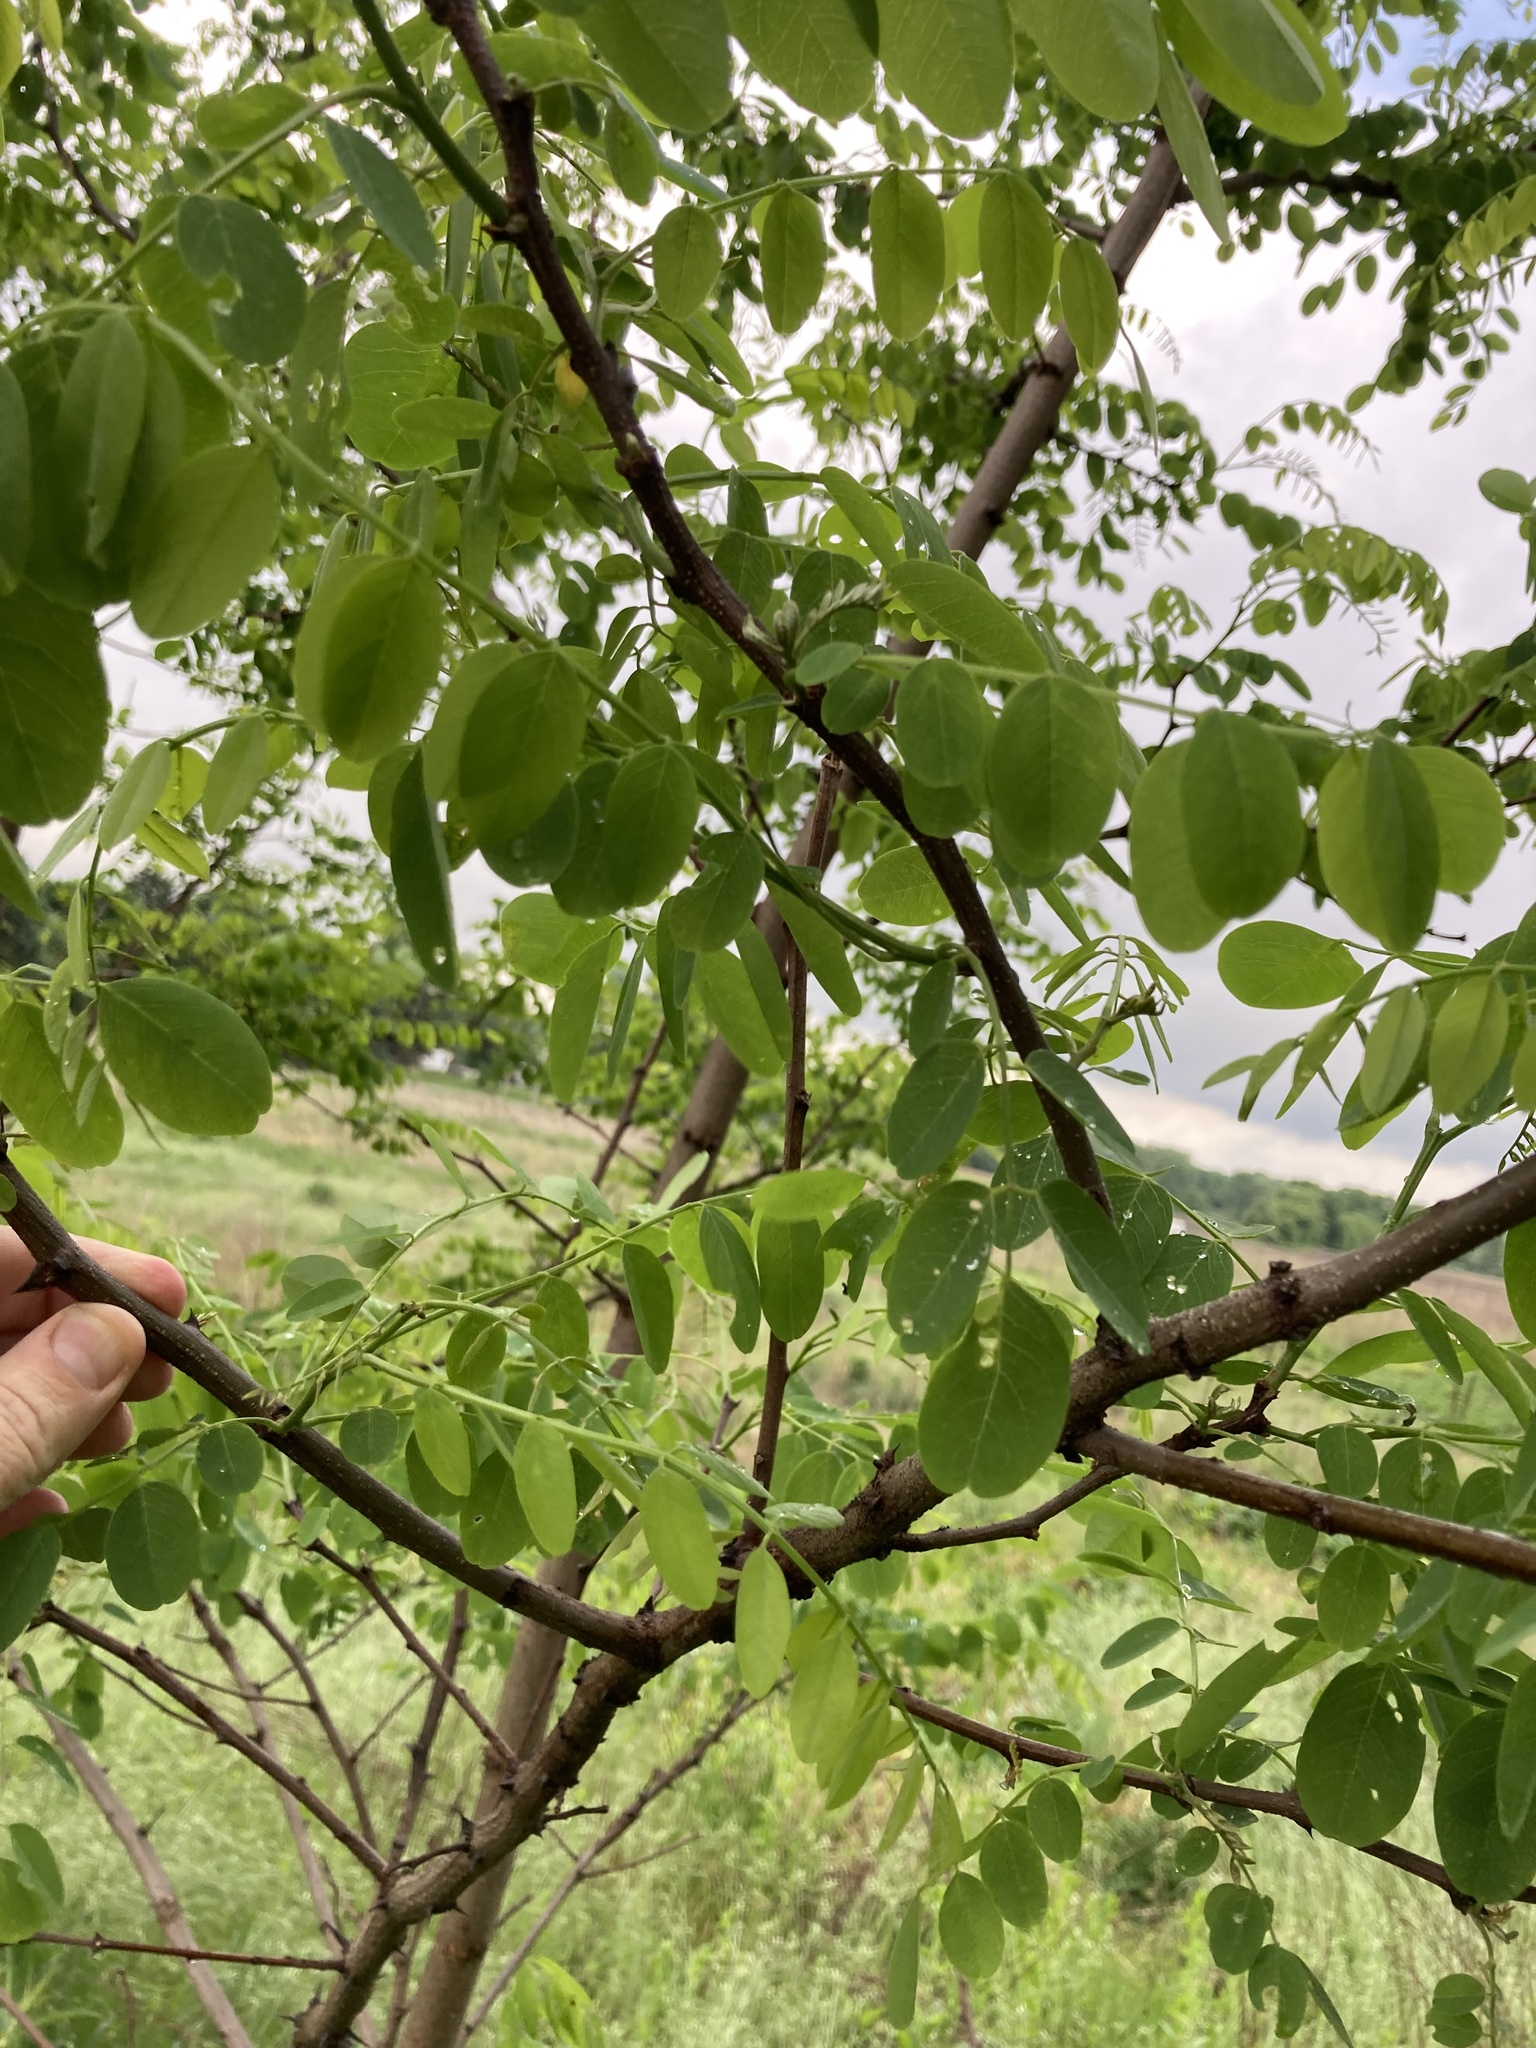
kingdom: Plantae
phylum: Tracheophyta
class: Magnoliopsida
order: Fabales
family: Fabaceae
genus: Robinia
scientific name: Robinia pseudoacacia
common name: Black locust
